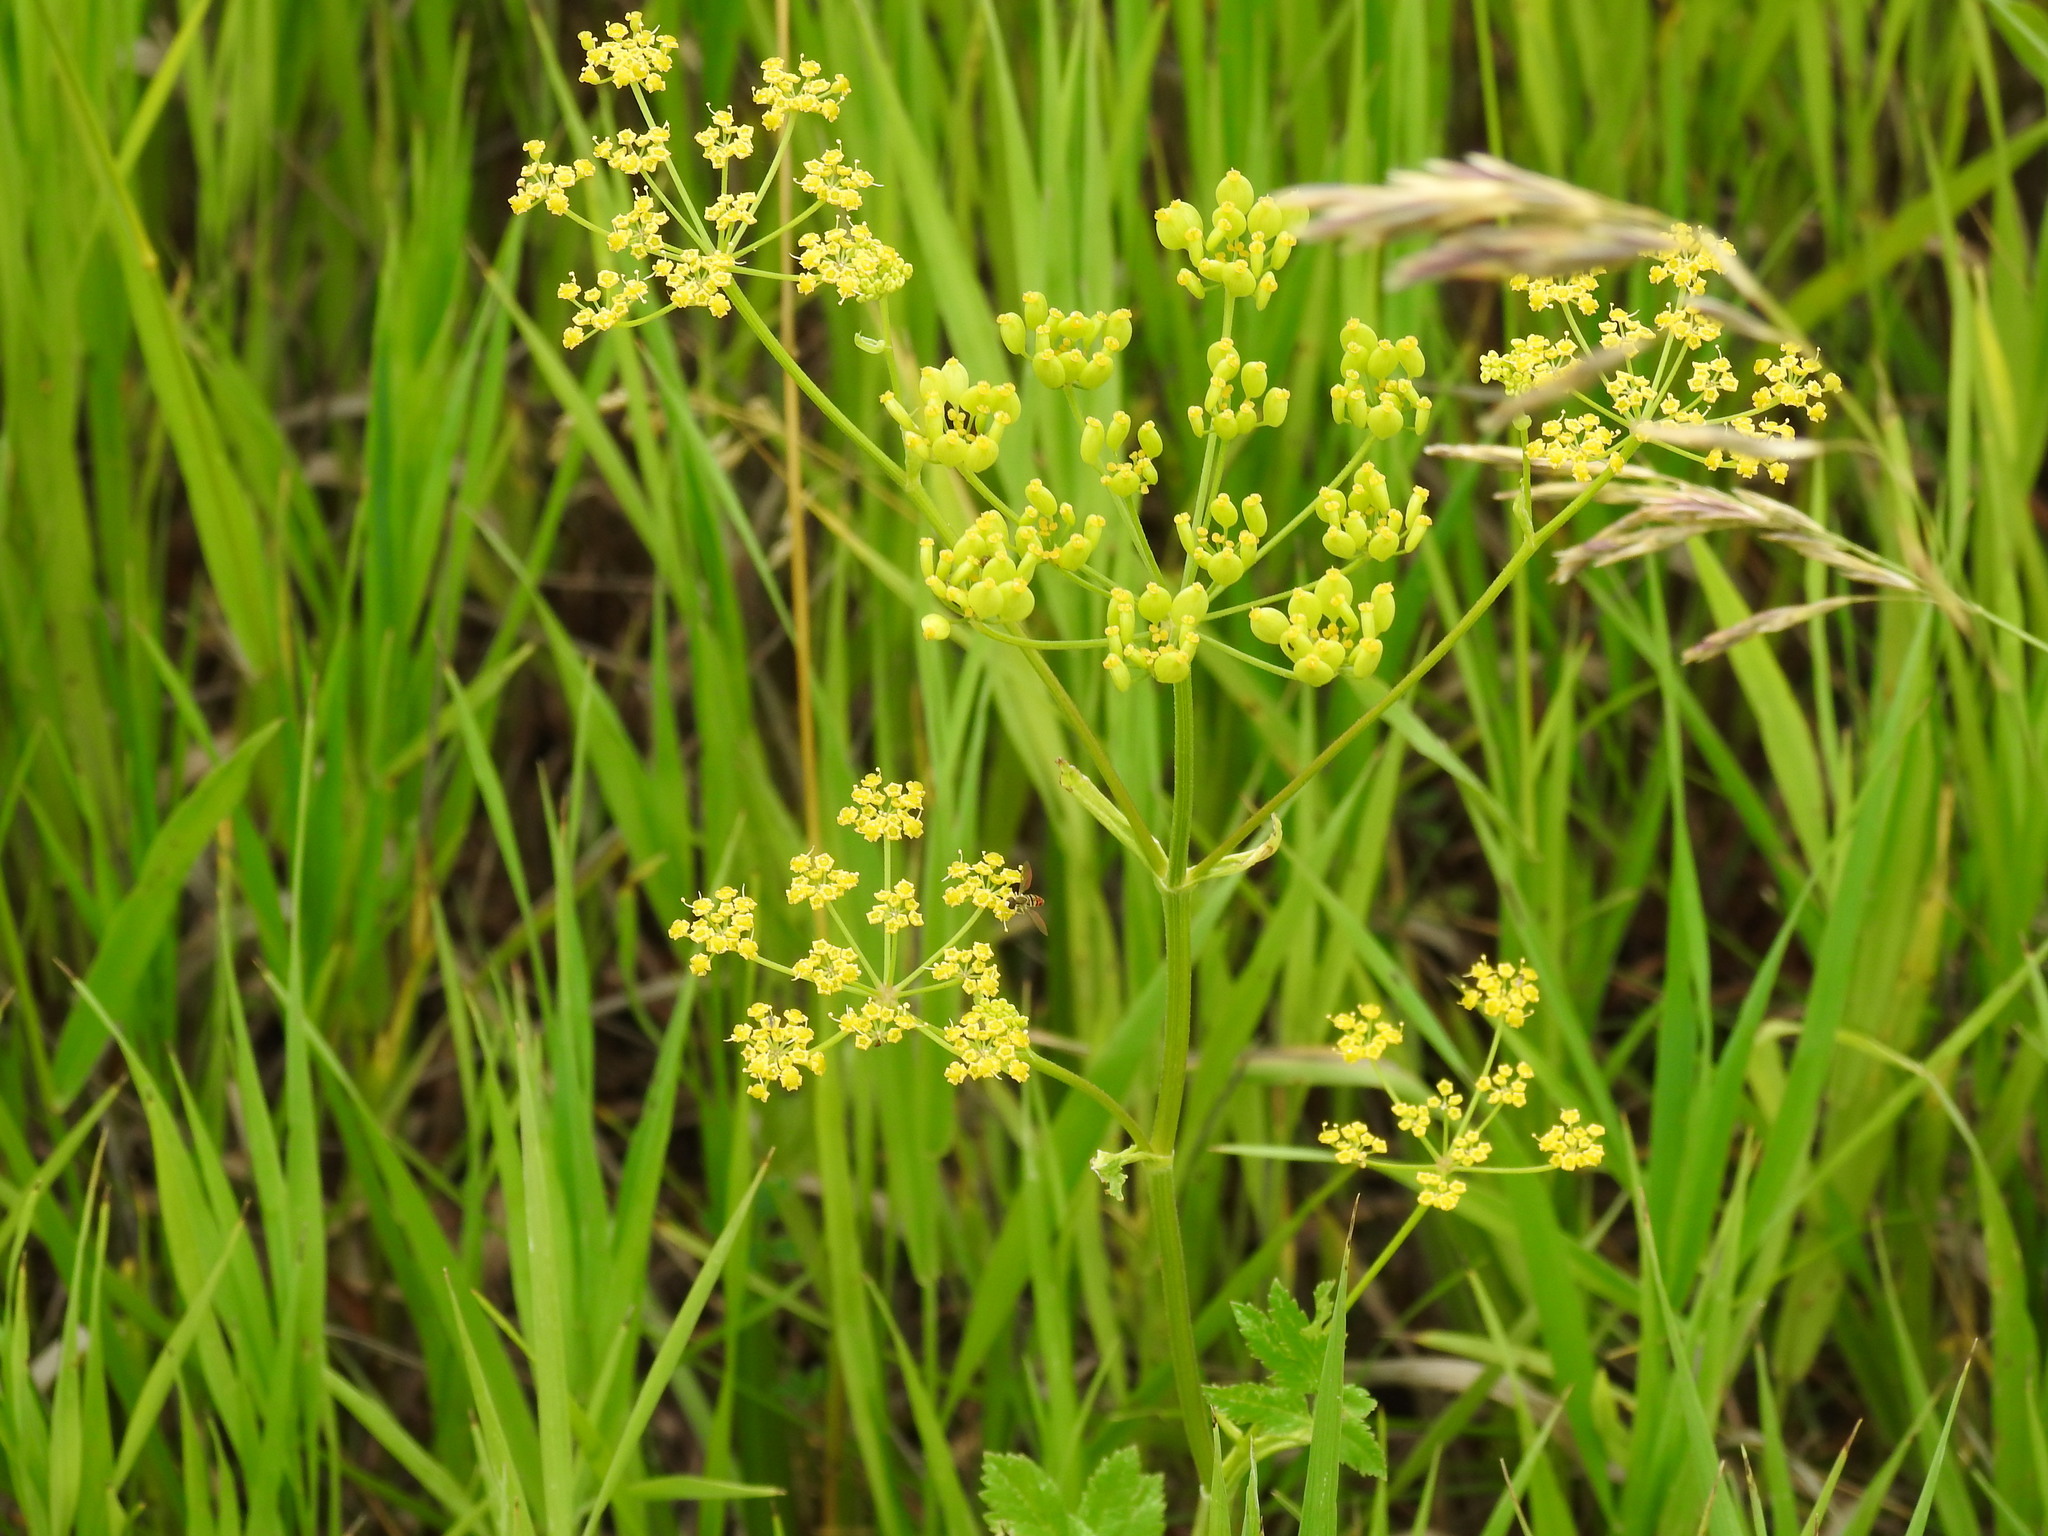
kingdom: Plantae
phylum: Tracheophyta
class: Magnoliopsida
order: Apiales
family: Apiaceae
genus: Pastinaca
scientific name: Pastinaca sativa
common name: Wild parsnip
